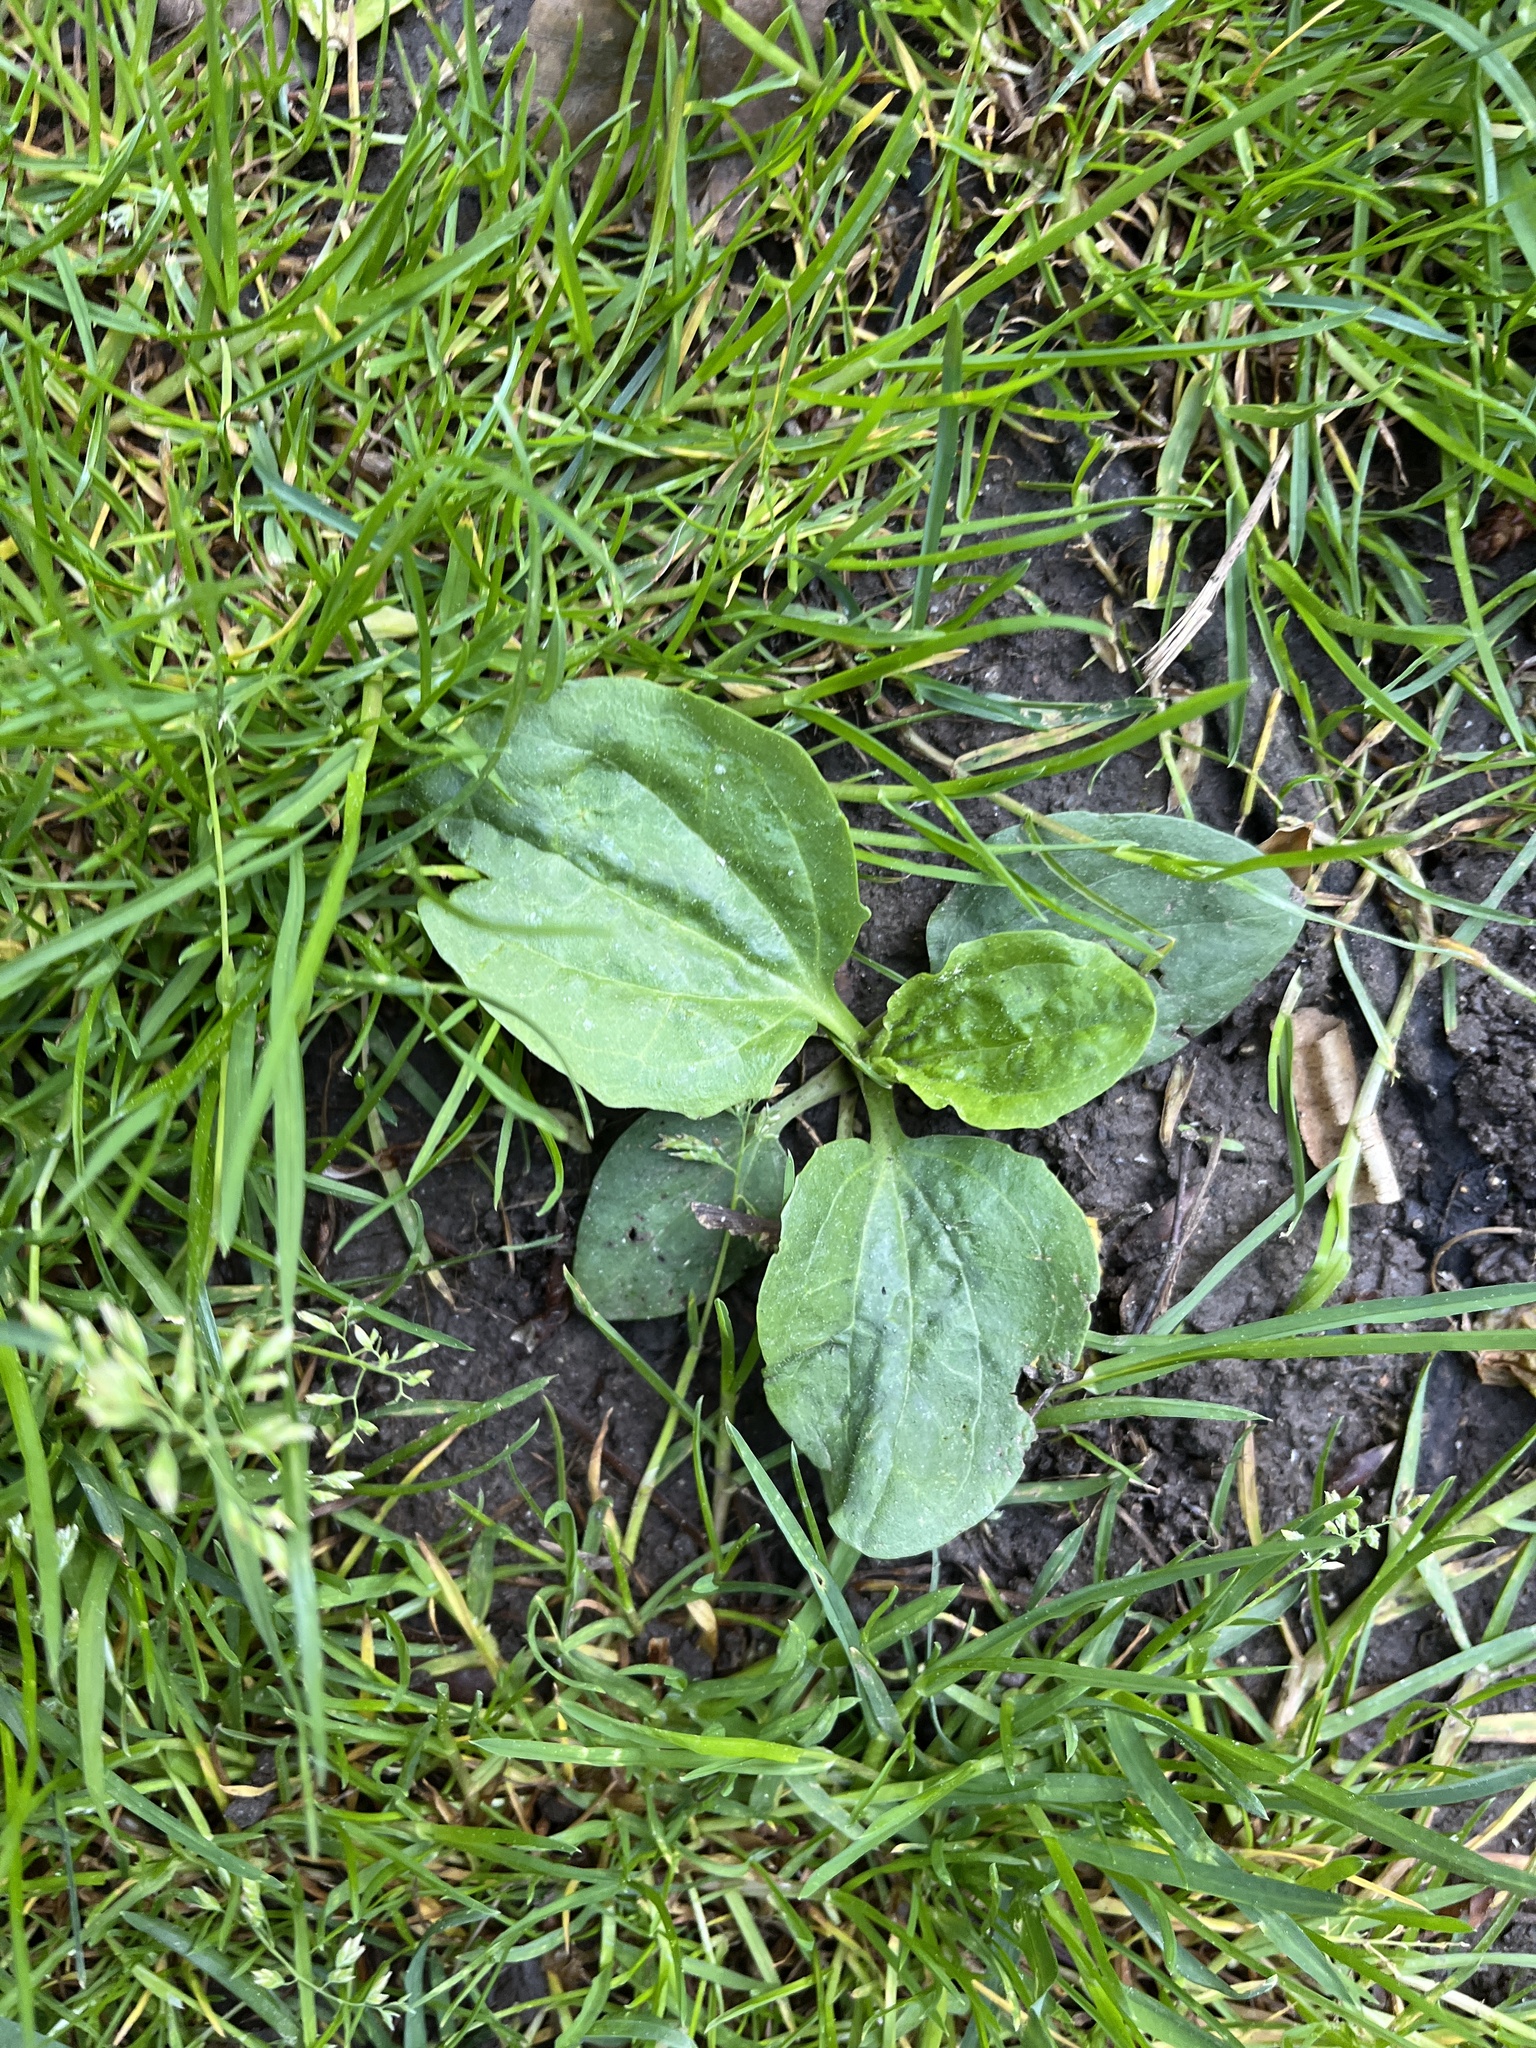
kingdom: Plantae
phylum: Tracheophyta
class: Magnoliopsida
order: Lamiales
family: Plantaginaceae
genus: Plantago
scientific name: Plantago major
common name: Common plantain
